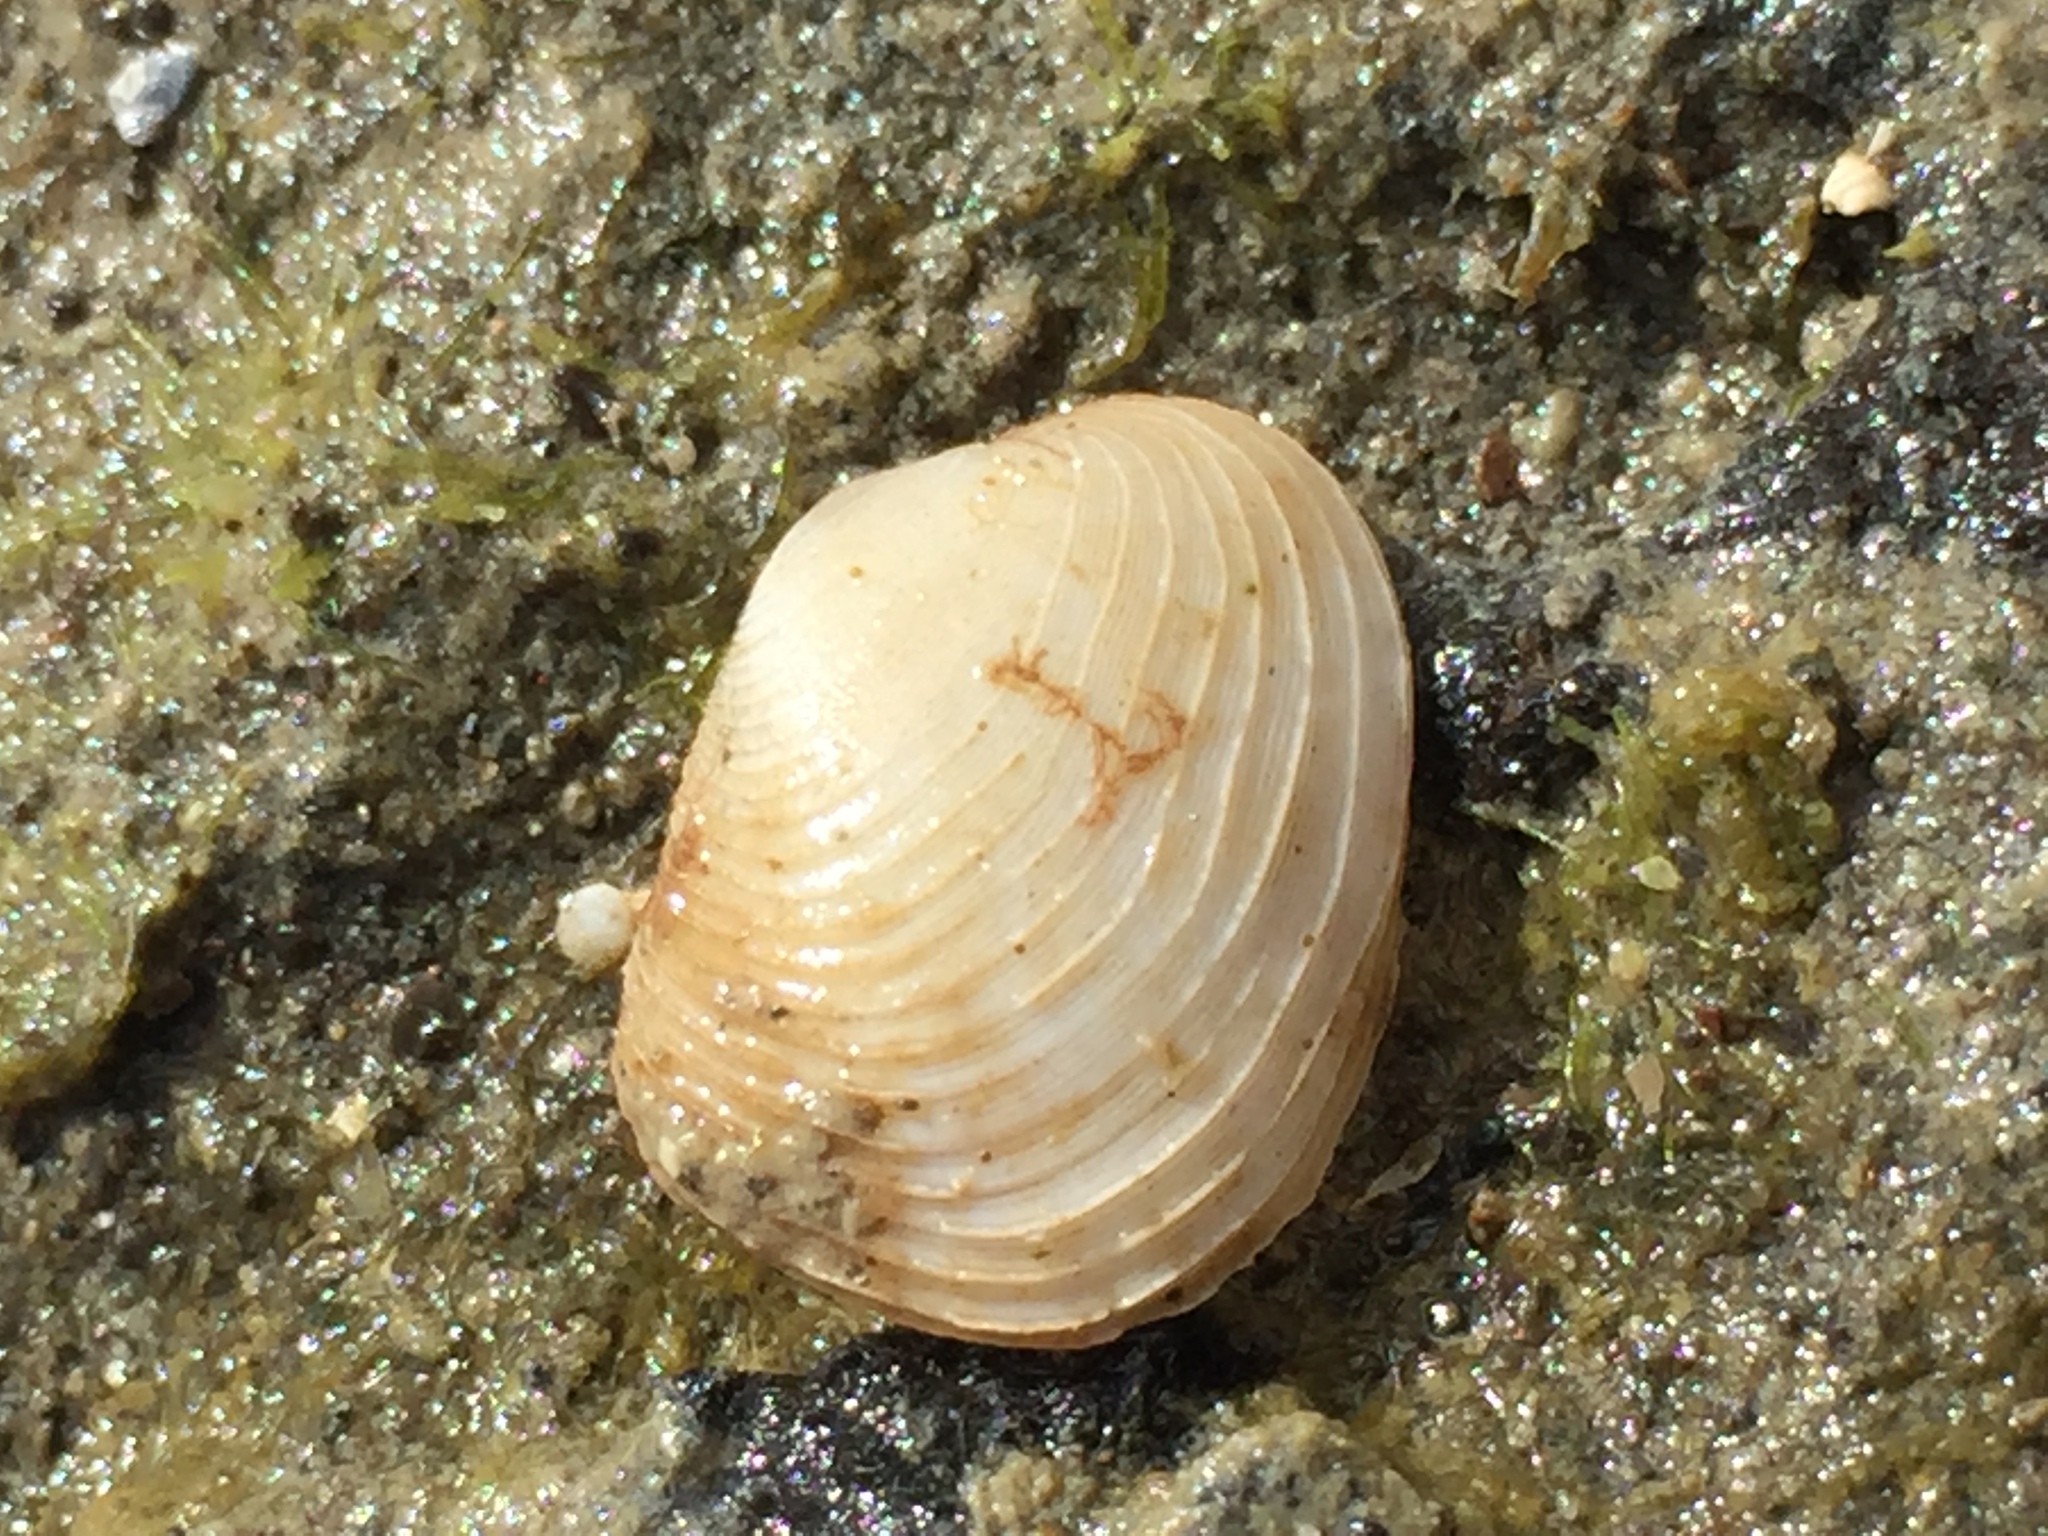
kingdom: Animalia
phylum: Mollusca
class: Bivalvia
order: Venerida
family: Veneridae
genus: Irus
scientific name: Irus reflexus
